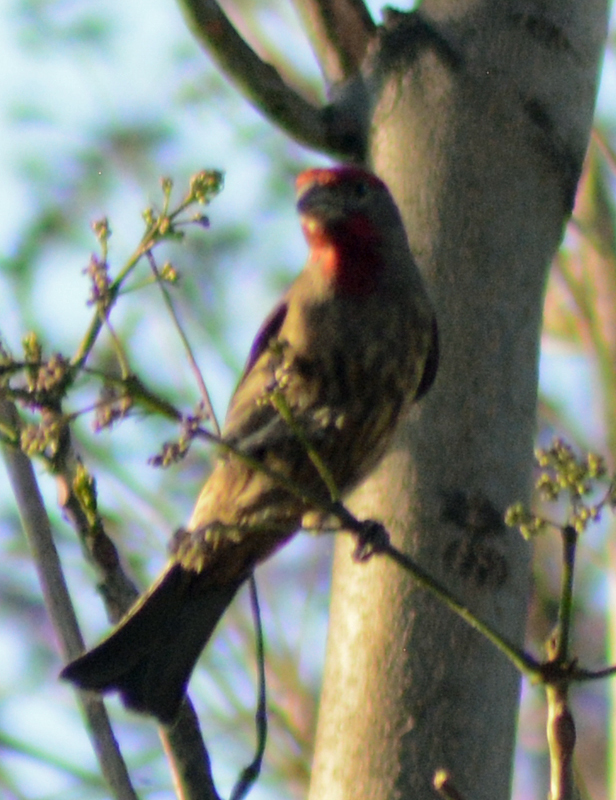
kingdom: Animalia
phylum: Chordata
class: Aves
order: Passeriformes
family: Fringillidae
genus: Haemorhous
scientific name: Haemorhous mexicanus
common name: House finch
